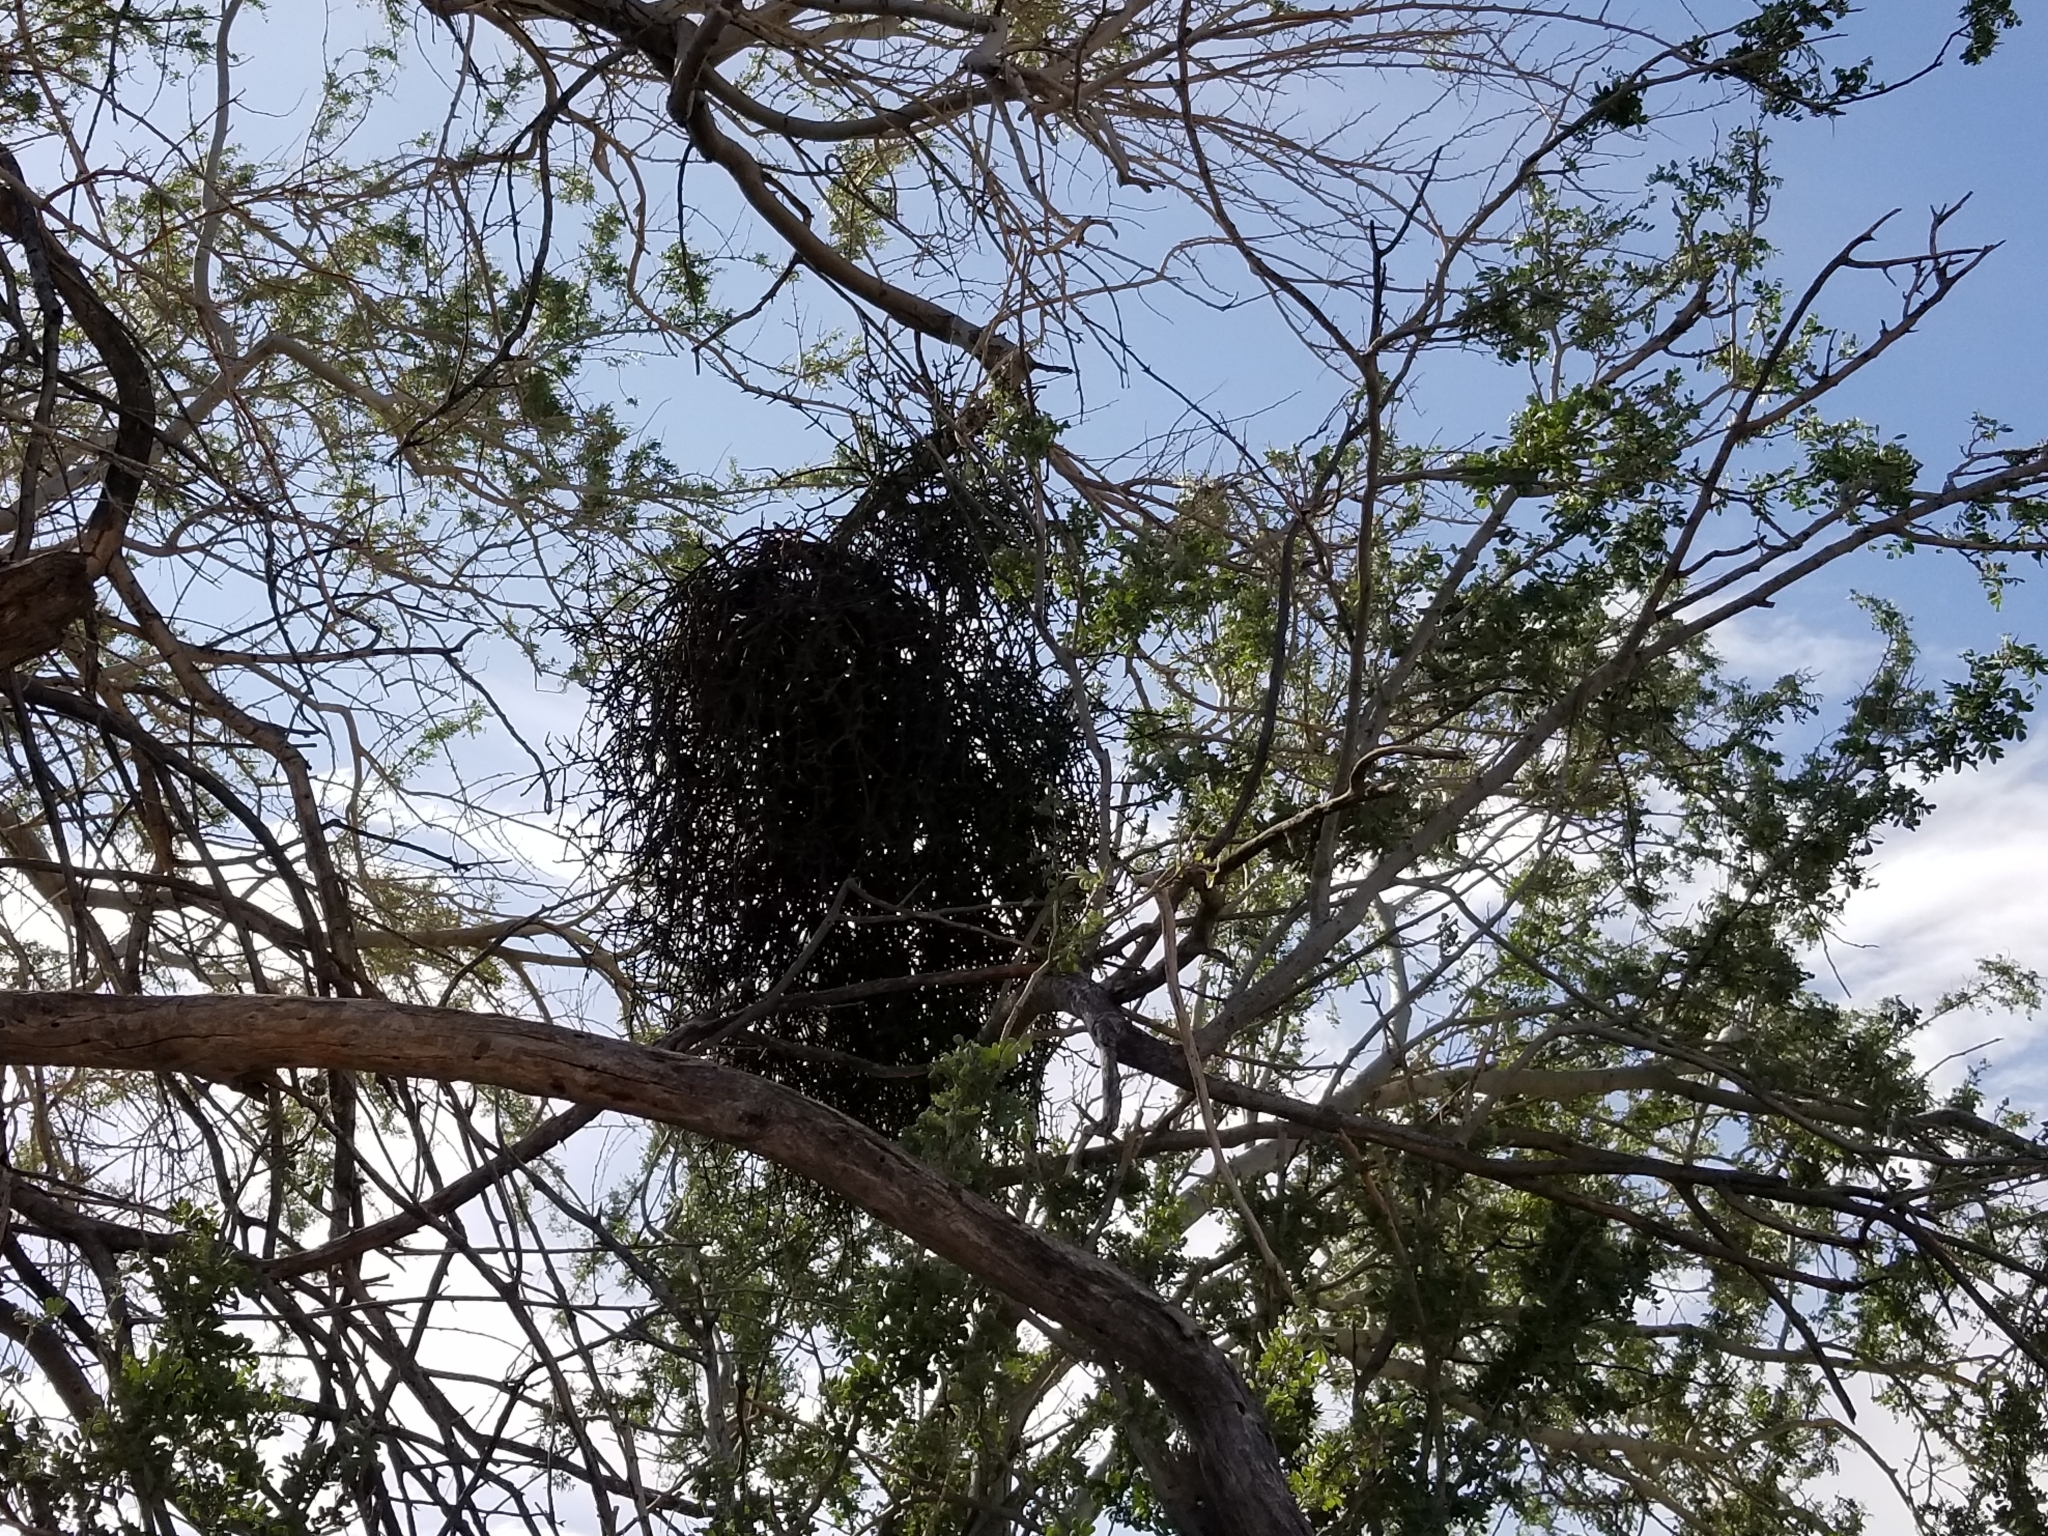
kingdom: Plantae
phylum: Tracheophyta
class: Magnoliopsida
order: Santalales
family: Viscaceae
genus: Phoradendron
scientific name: Phoradendron californicum
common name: Acacia mistletoe
